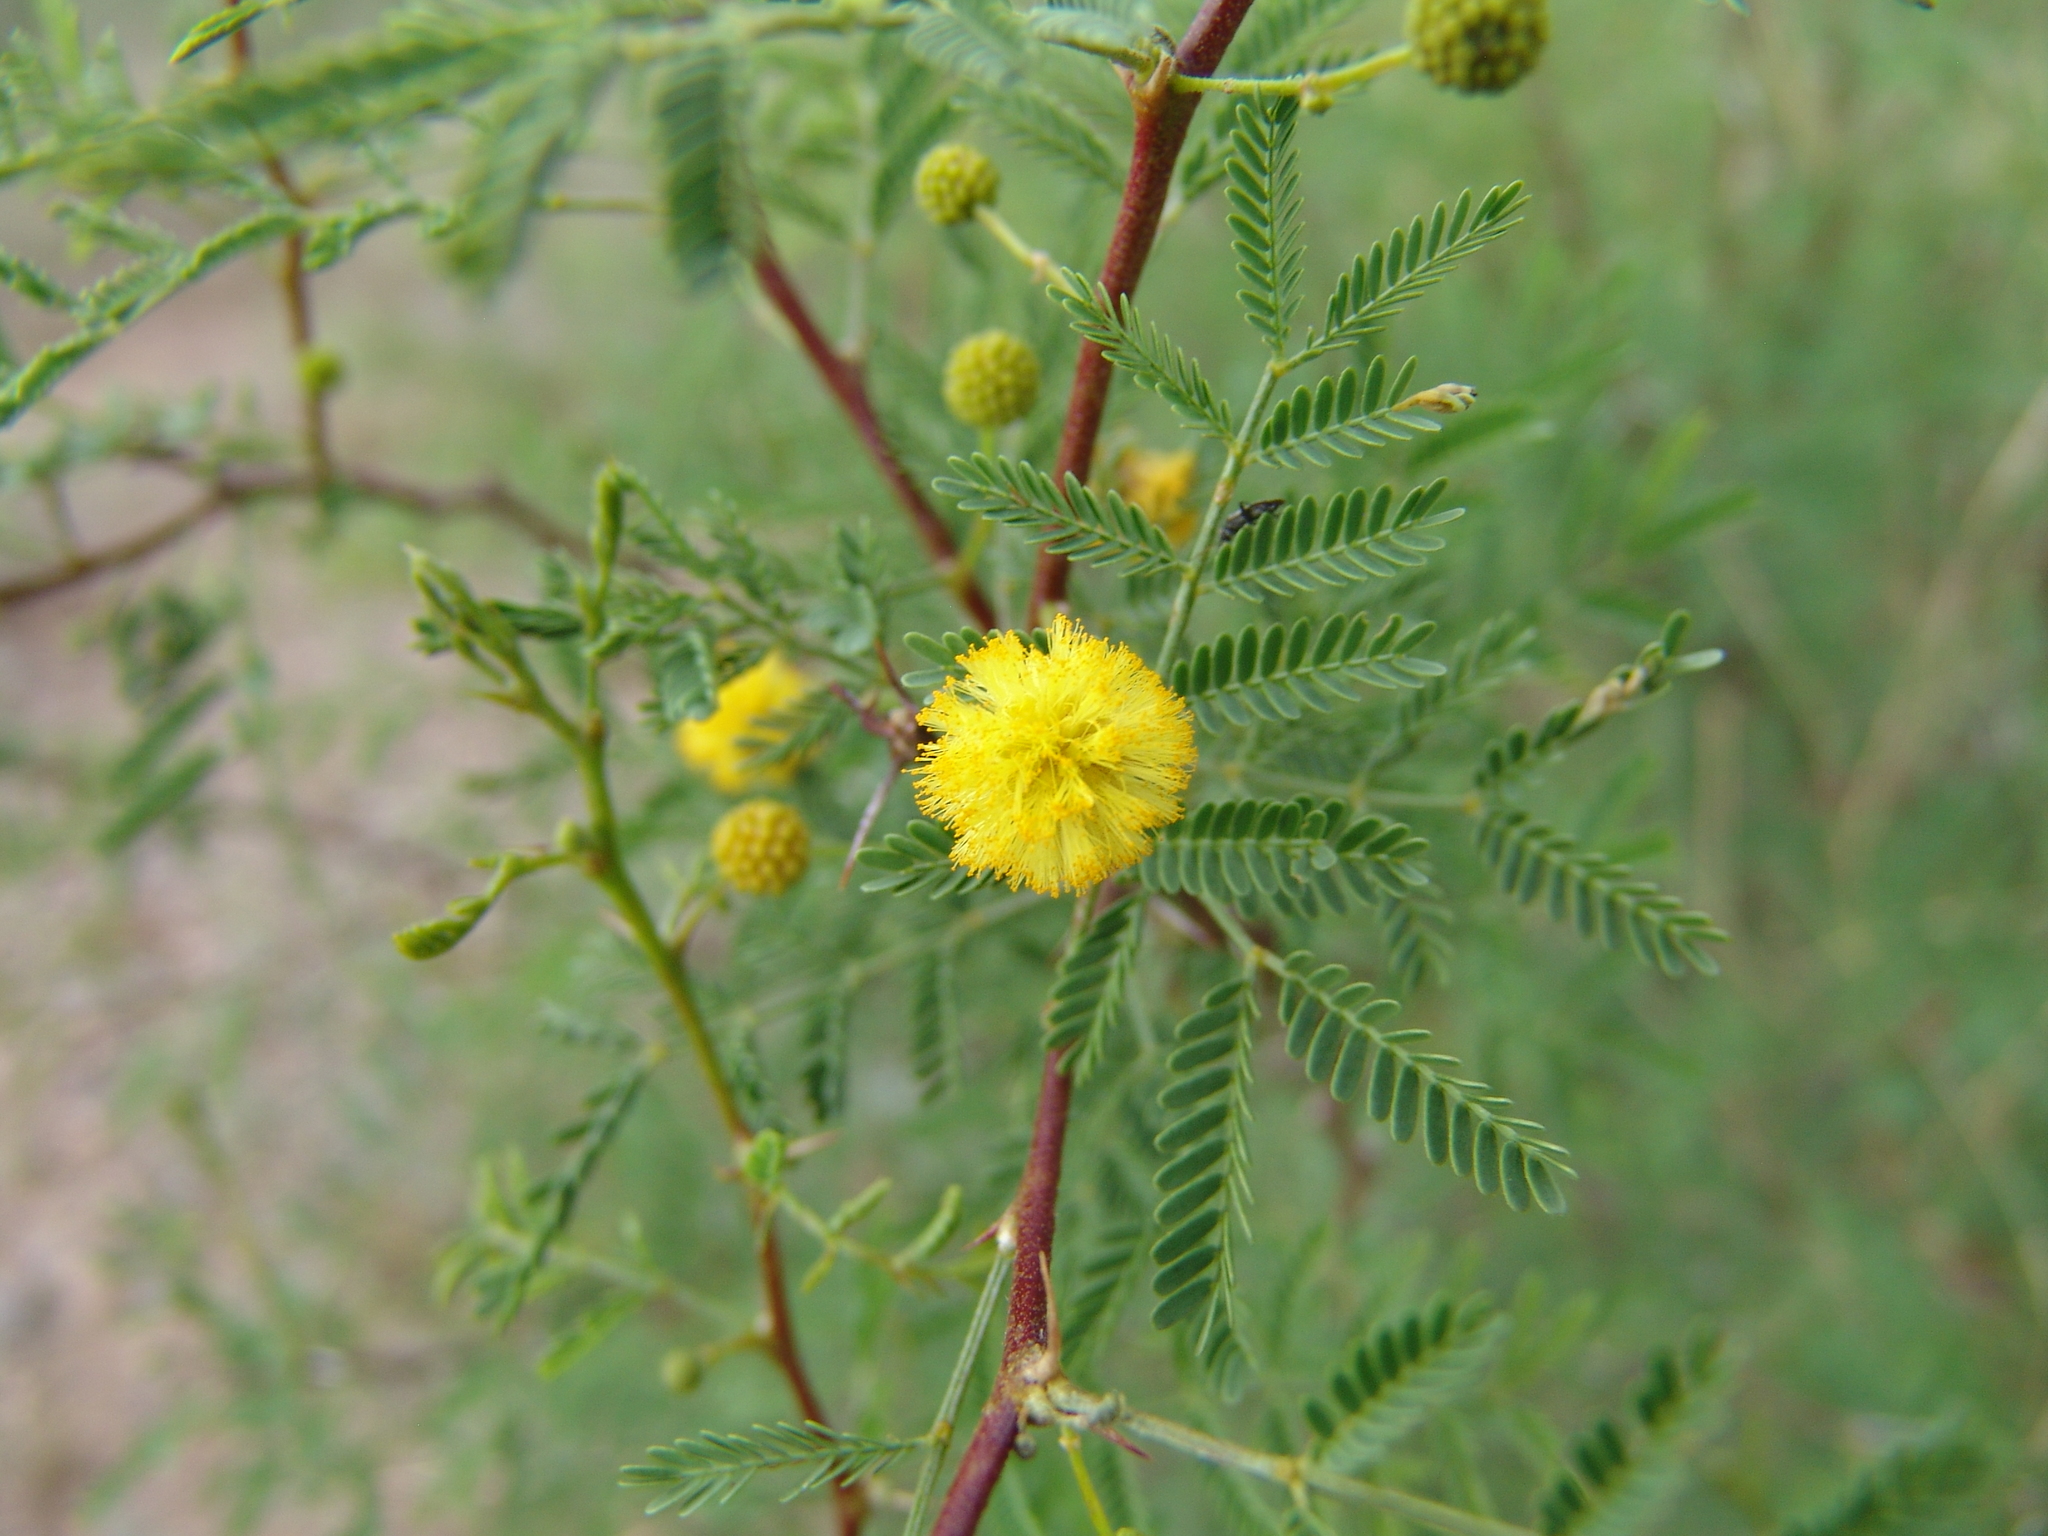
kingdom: Plantae
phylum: Tracheophyta
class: Magnoliopsida
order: Fabales
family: Fabaceae
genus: Vachellia
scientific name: Vachellia constricta
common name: Mescat acacia
